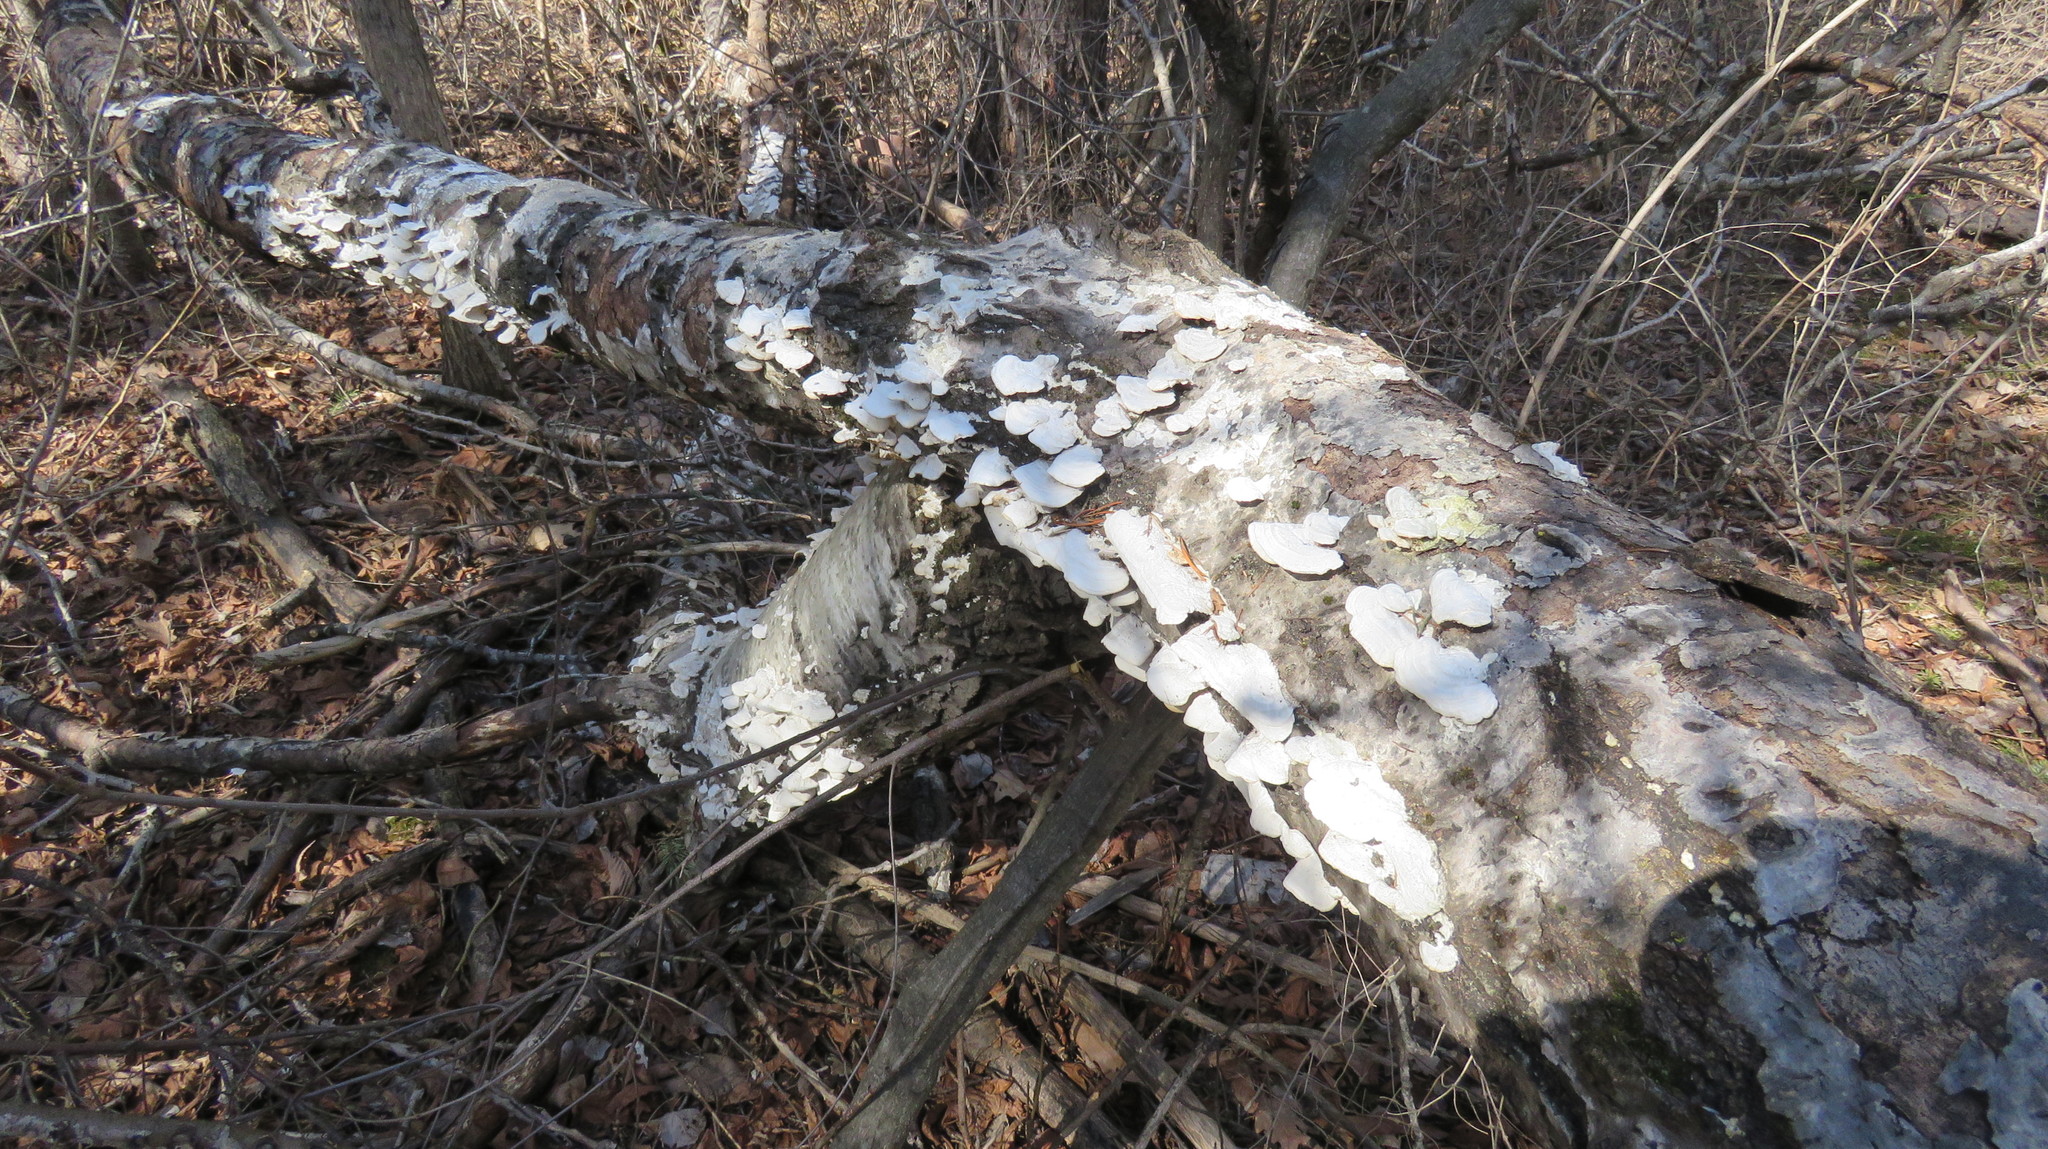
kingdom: Fungi
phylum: Basidiomycota
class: Agaricomycetes
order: Hymenochaetales
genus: Trichaptum
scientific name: Trichaptum biforme
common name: Violet-toothed polypore
